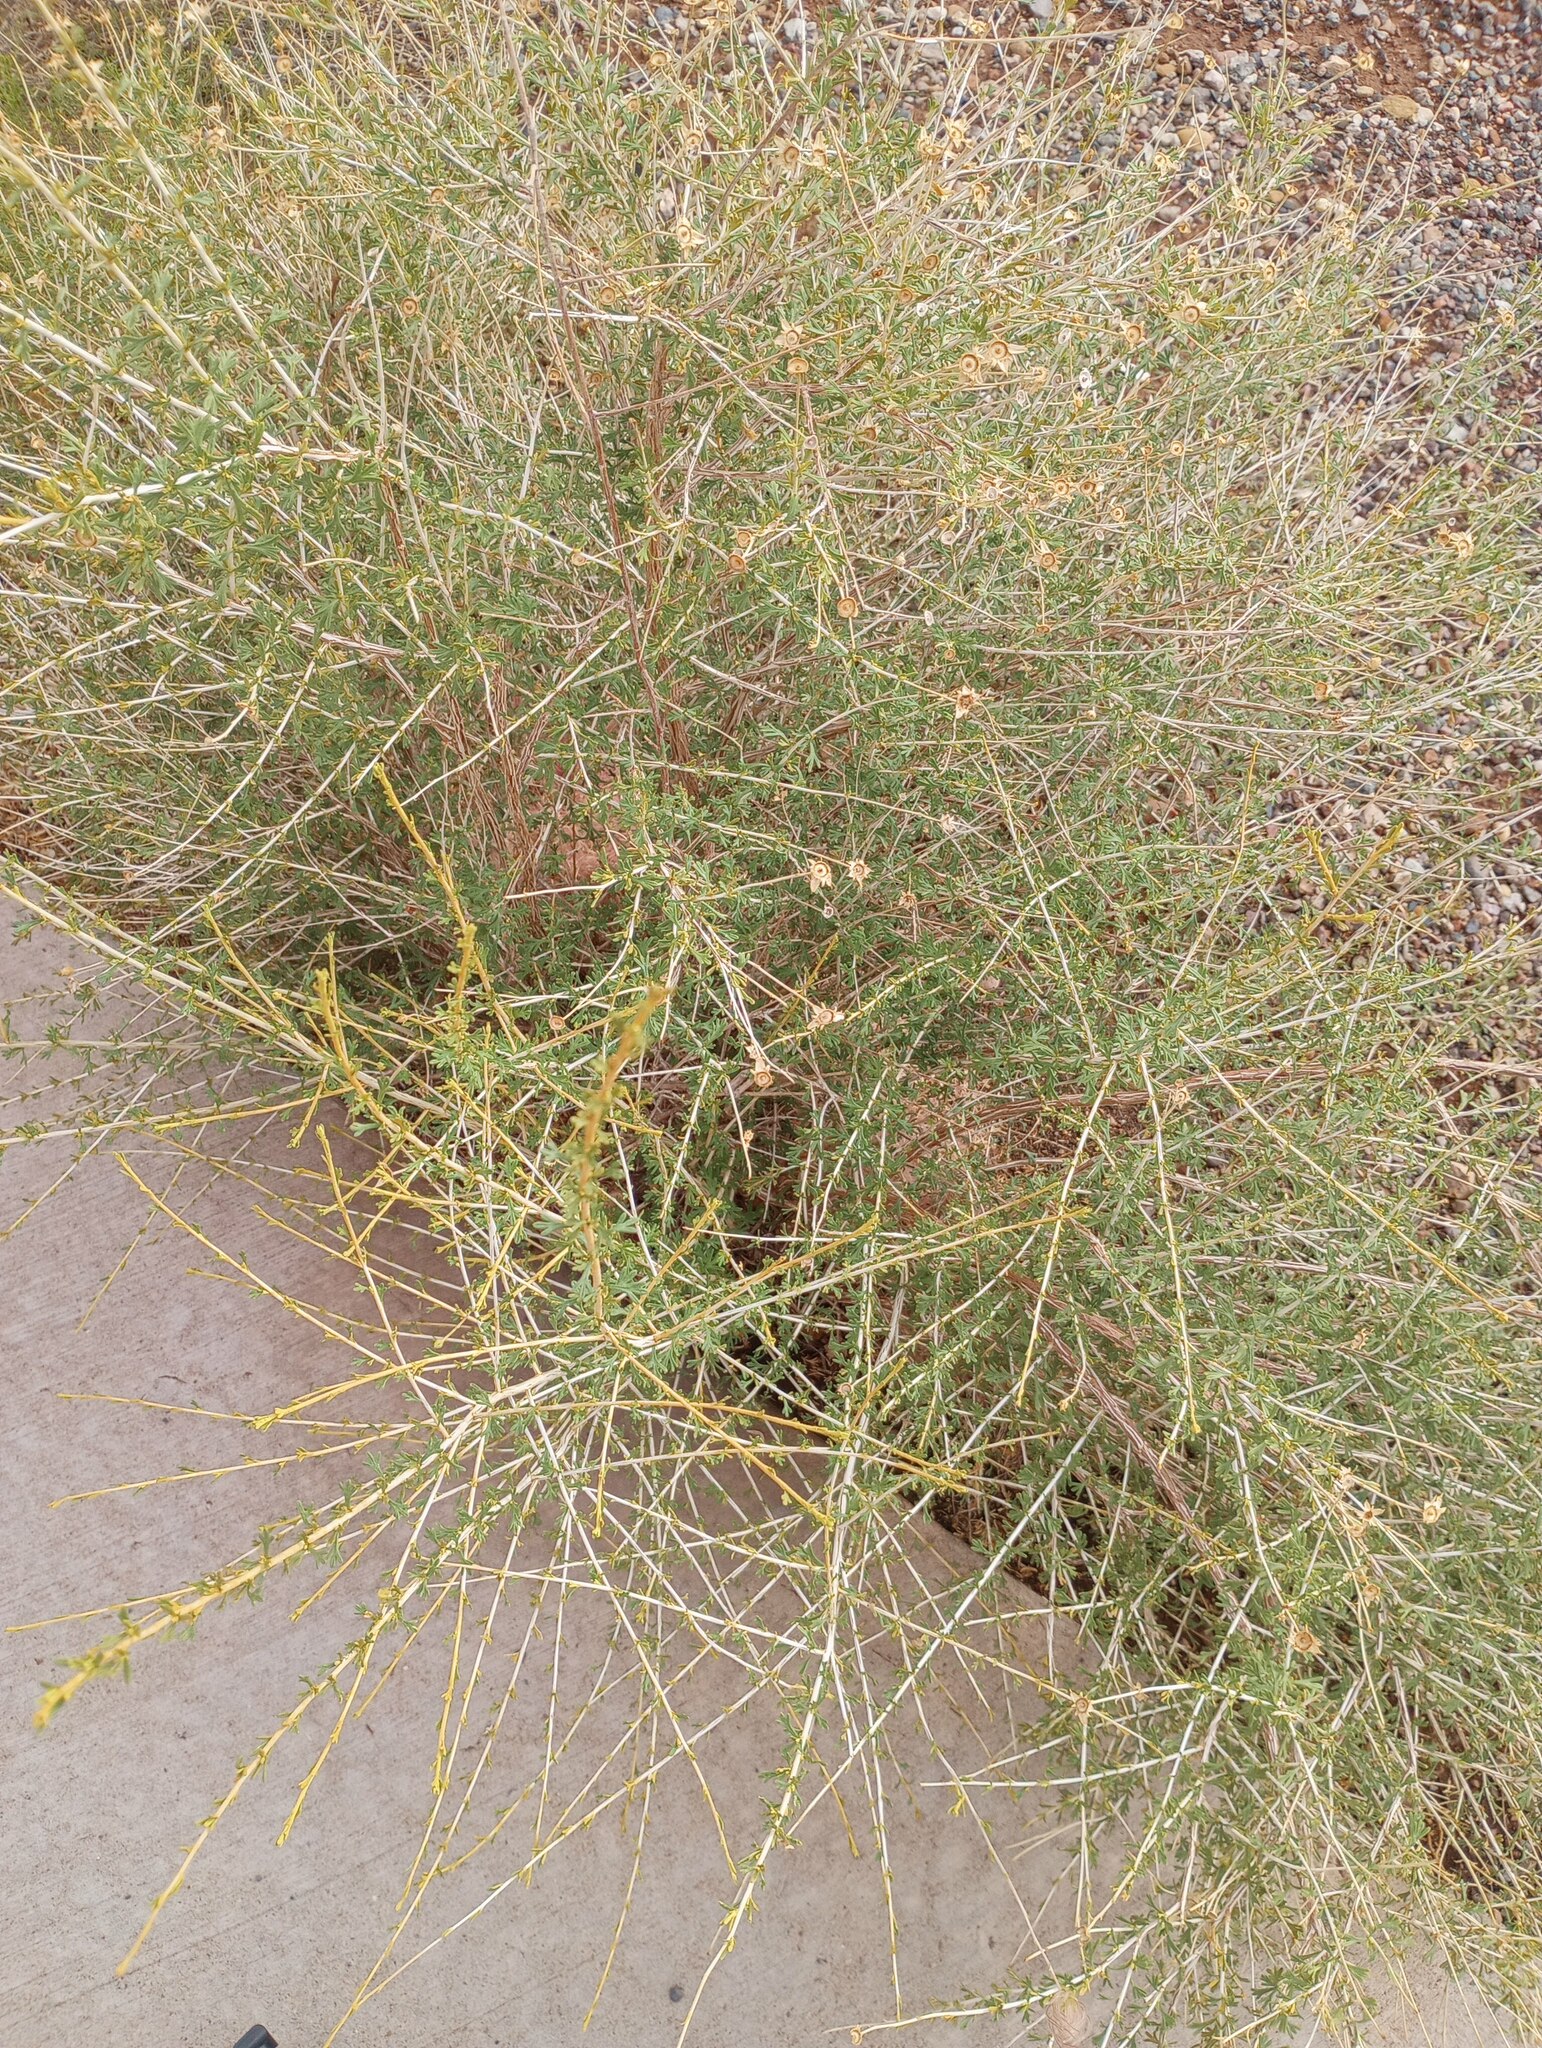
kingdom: Plantae
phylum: Tracheophyta
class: Magnoliopsida
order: Rosales
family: Rosaceae
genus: Fallugia
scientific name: Fallugia paradoxa
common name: Apache-plume
